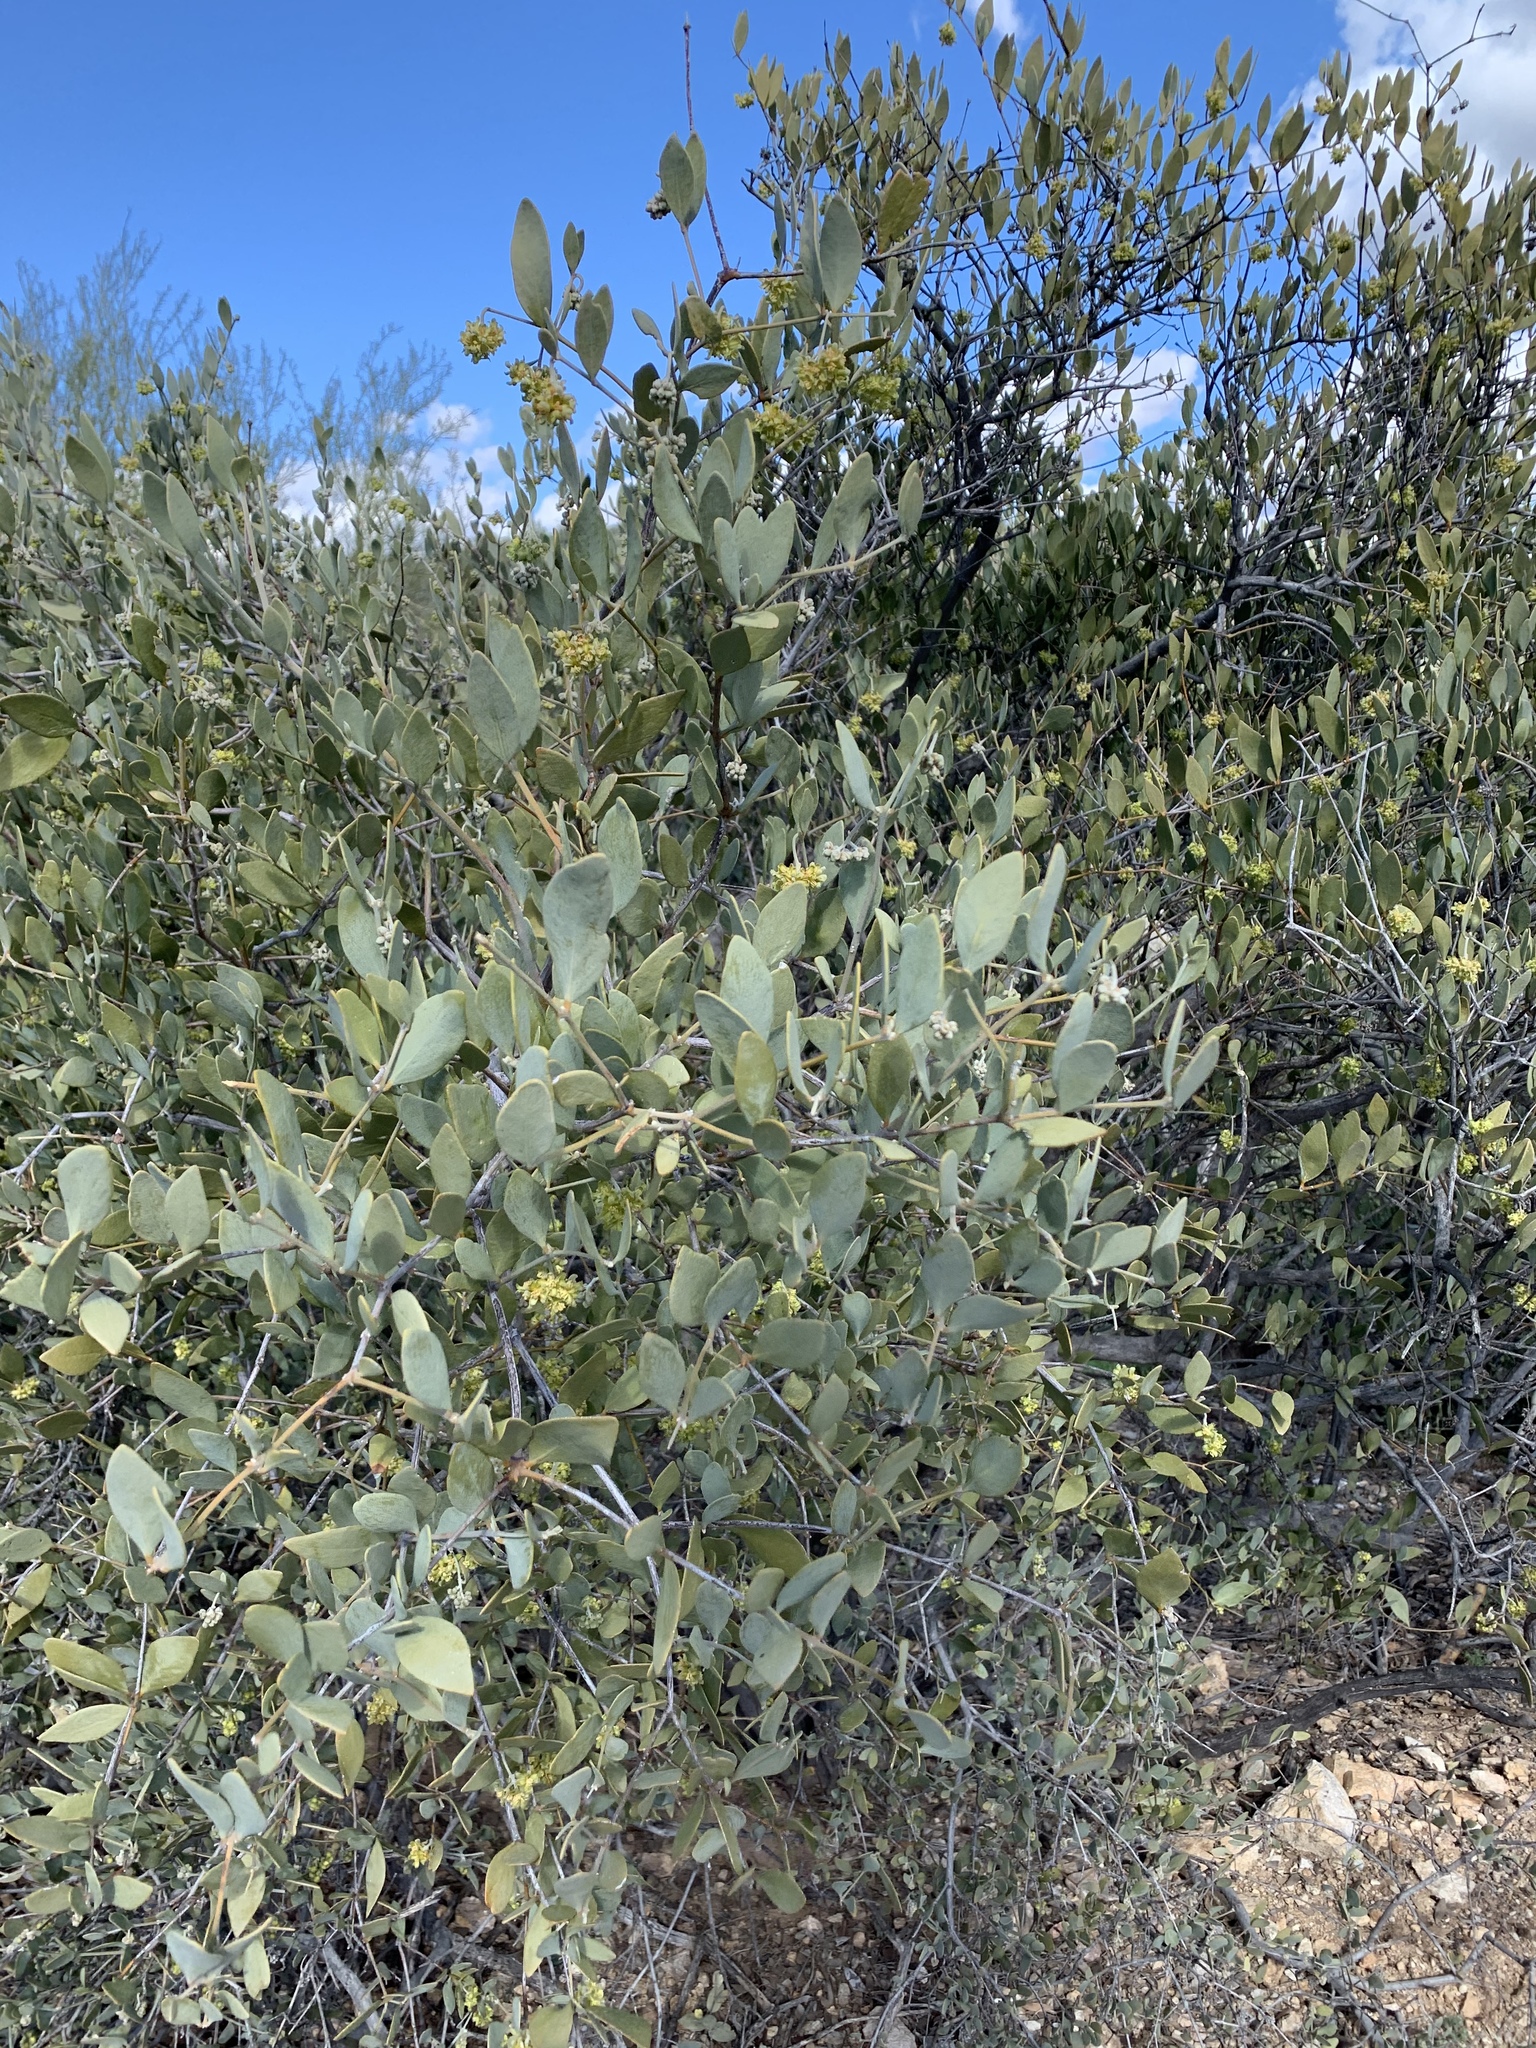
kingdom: Plantae
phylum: Tracheophyta
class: Magnoliopsida
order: Caryophyllales
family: Simmondsiaceae
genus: Simmondsia
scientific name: Simmondsia chinensis
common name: Jojoba
